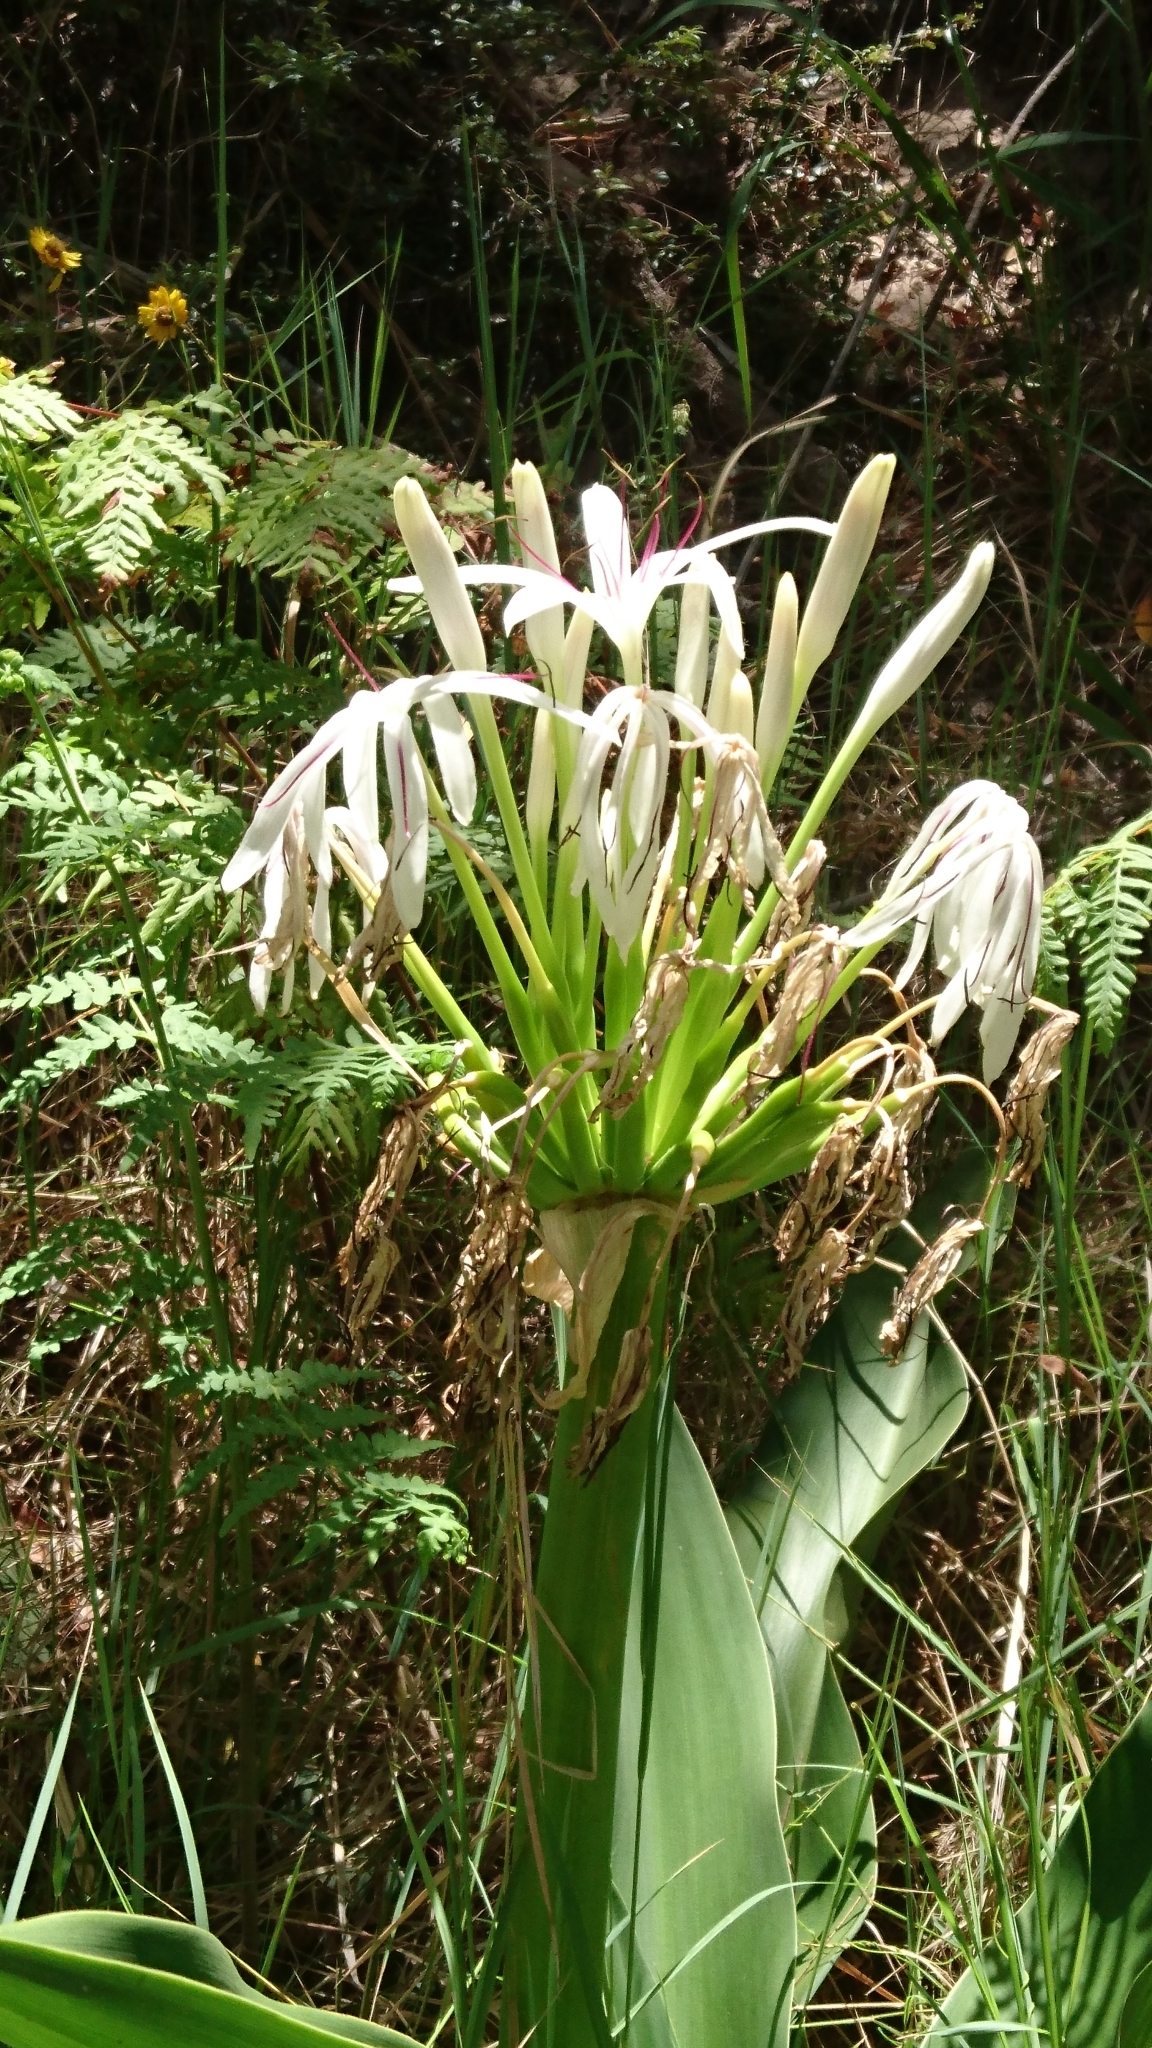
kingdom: Plantae
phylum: Tracheophyta
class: Liliopsida
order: Asparagales
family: Amaryllidaceae
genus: Crinum
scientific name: Crinum pedunculatum
